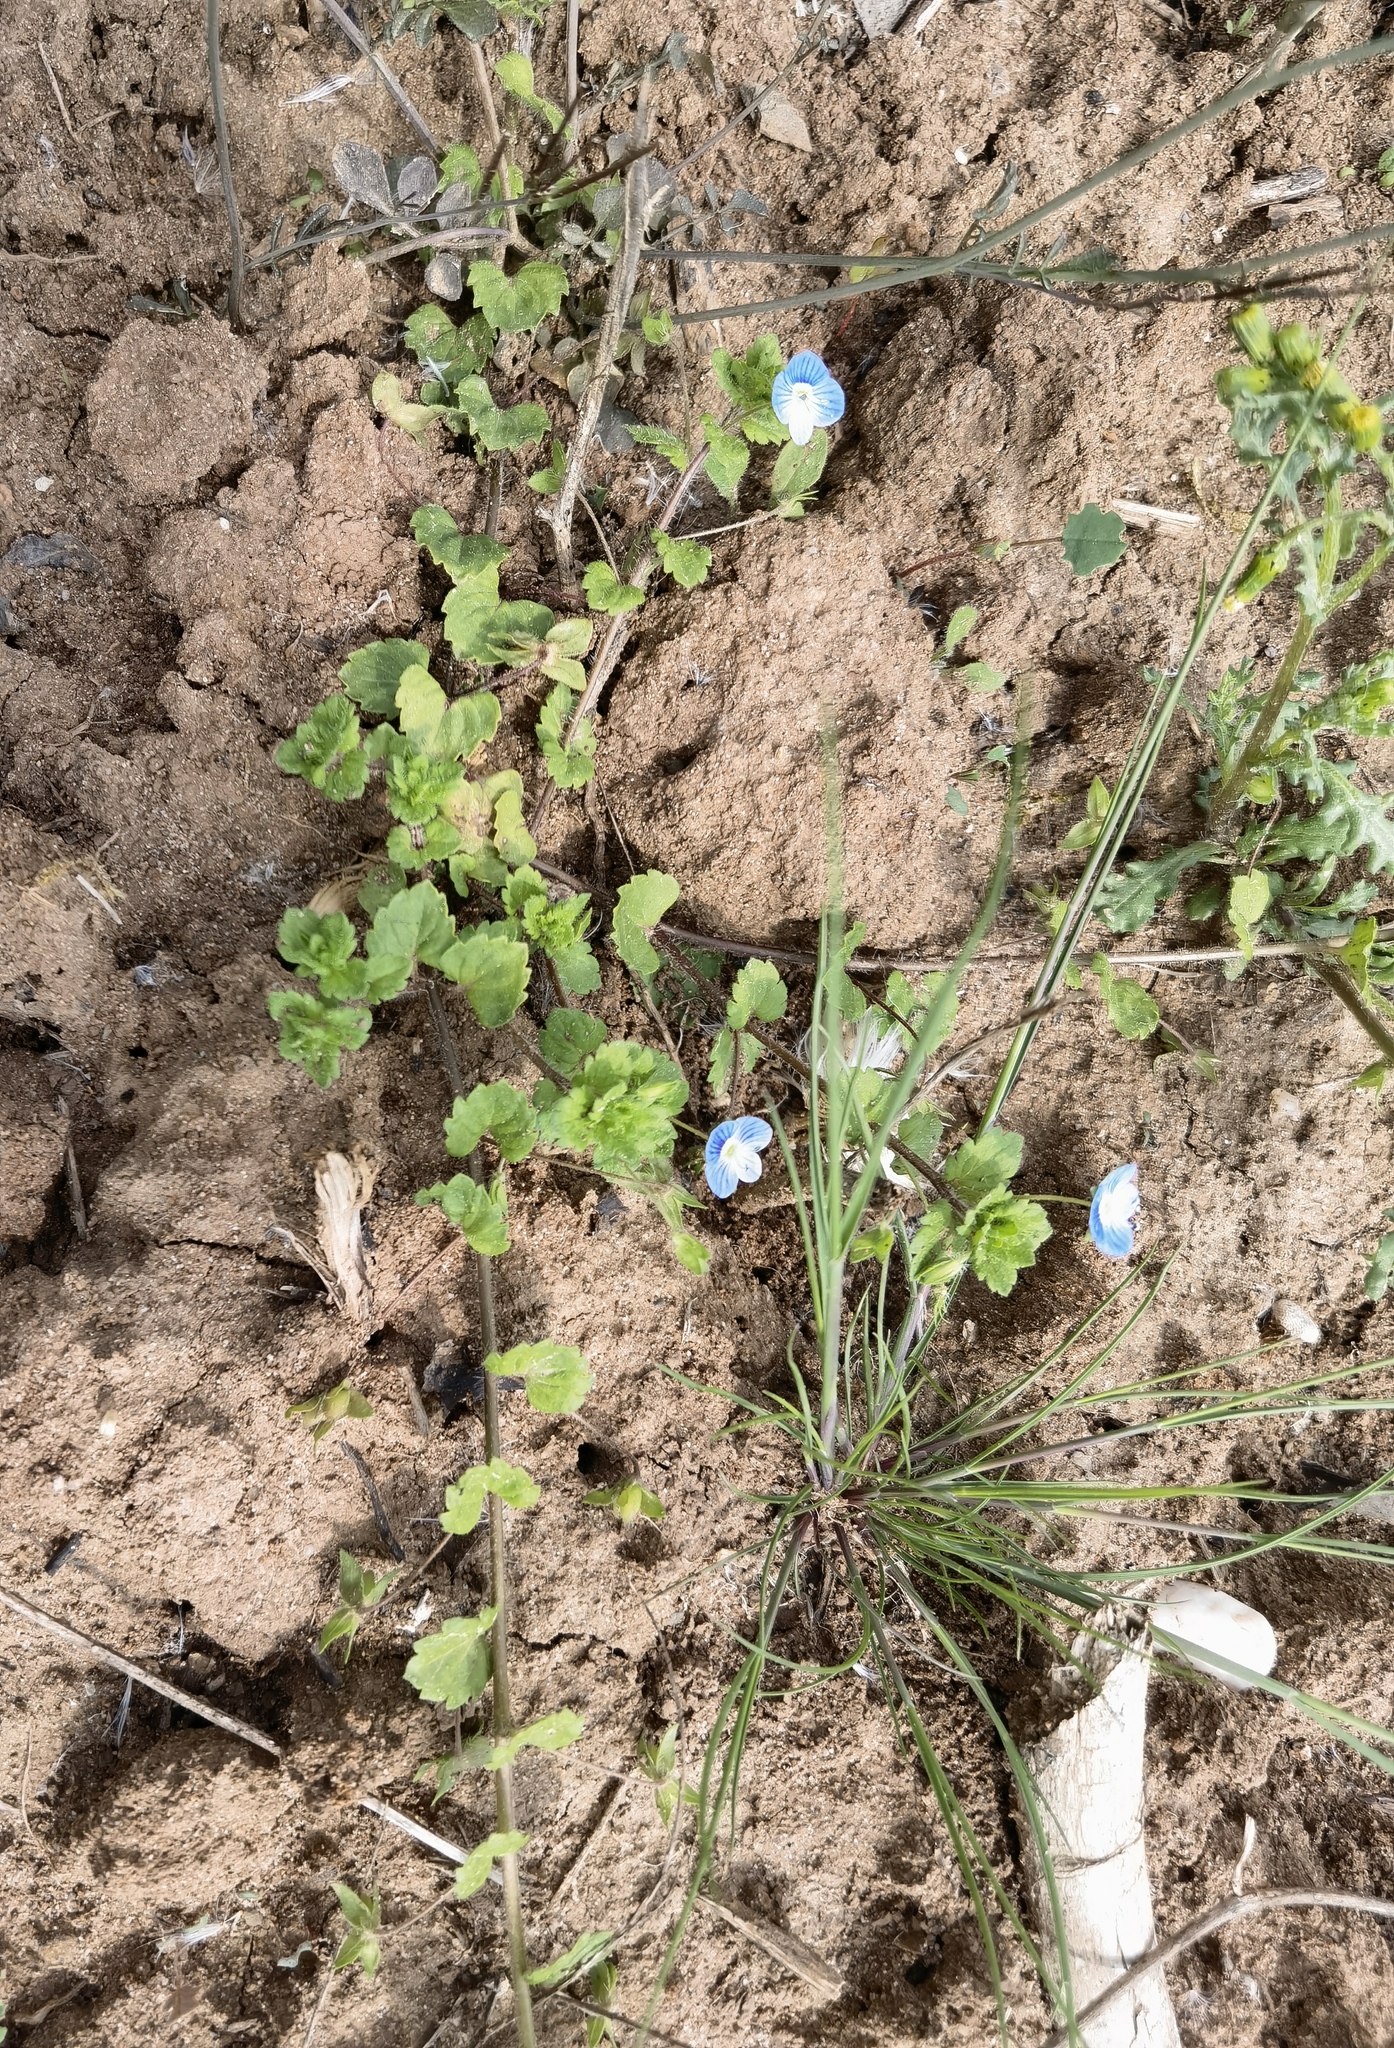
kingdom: Plantae
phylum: Tracheophyta
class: Magnoliopsida
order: Lamiales
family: Plantaginaceae
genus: Veronica
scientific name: Veronica persica
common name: Common field-speedwell
